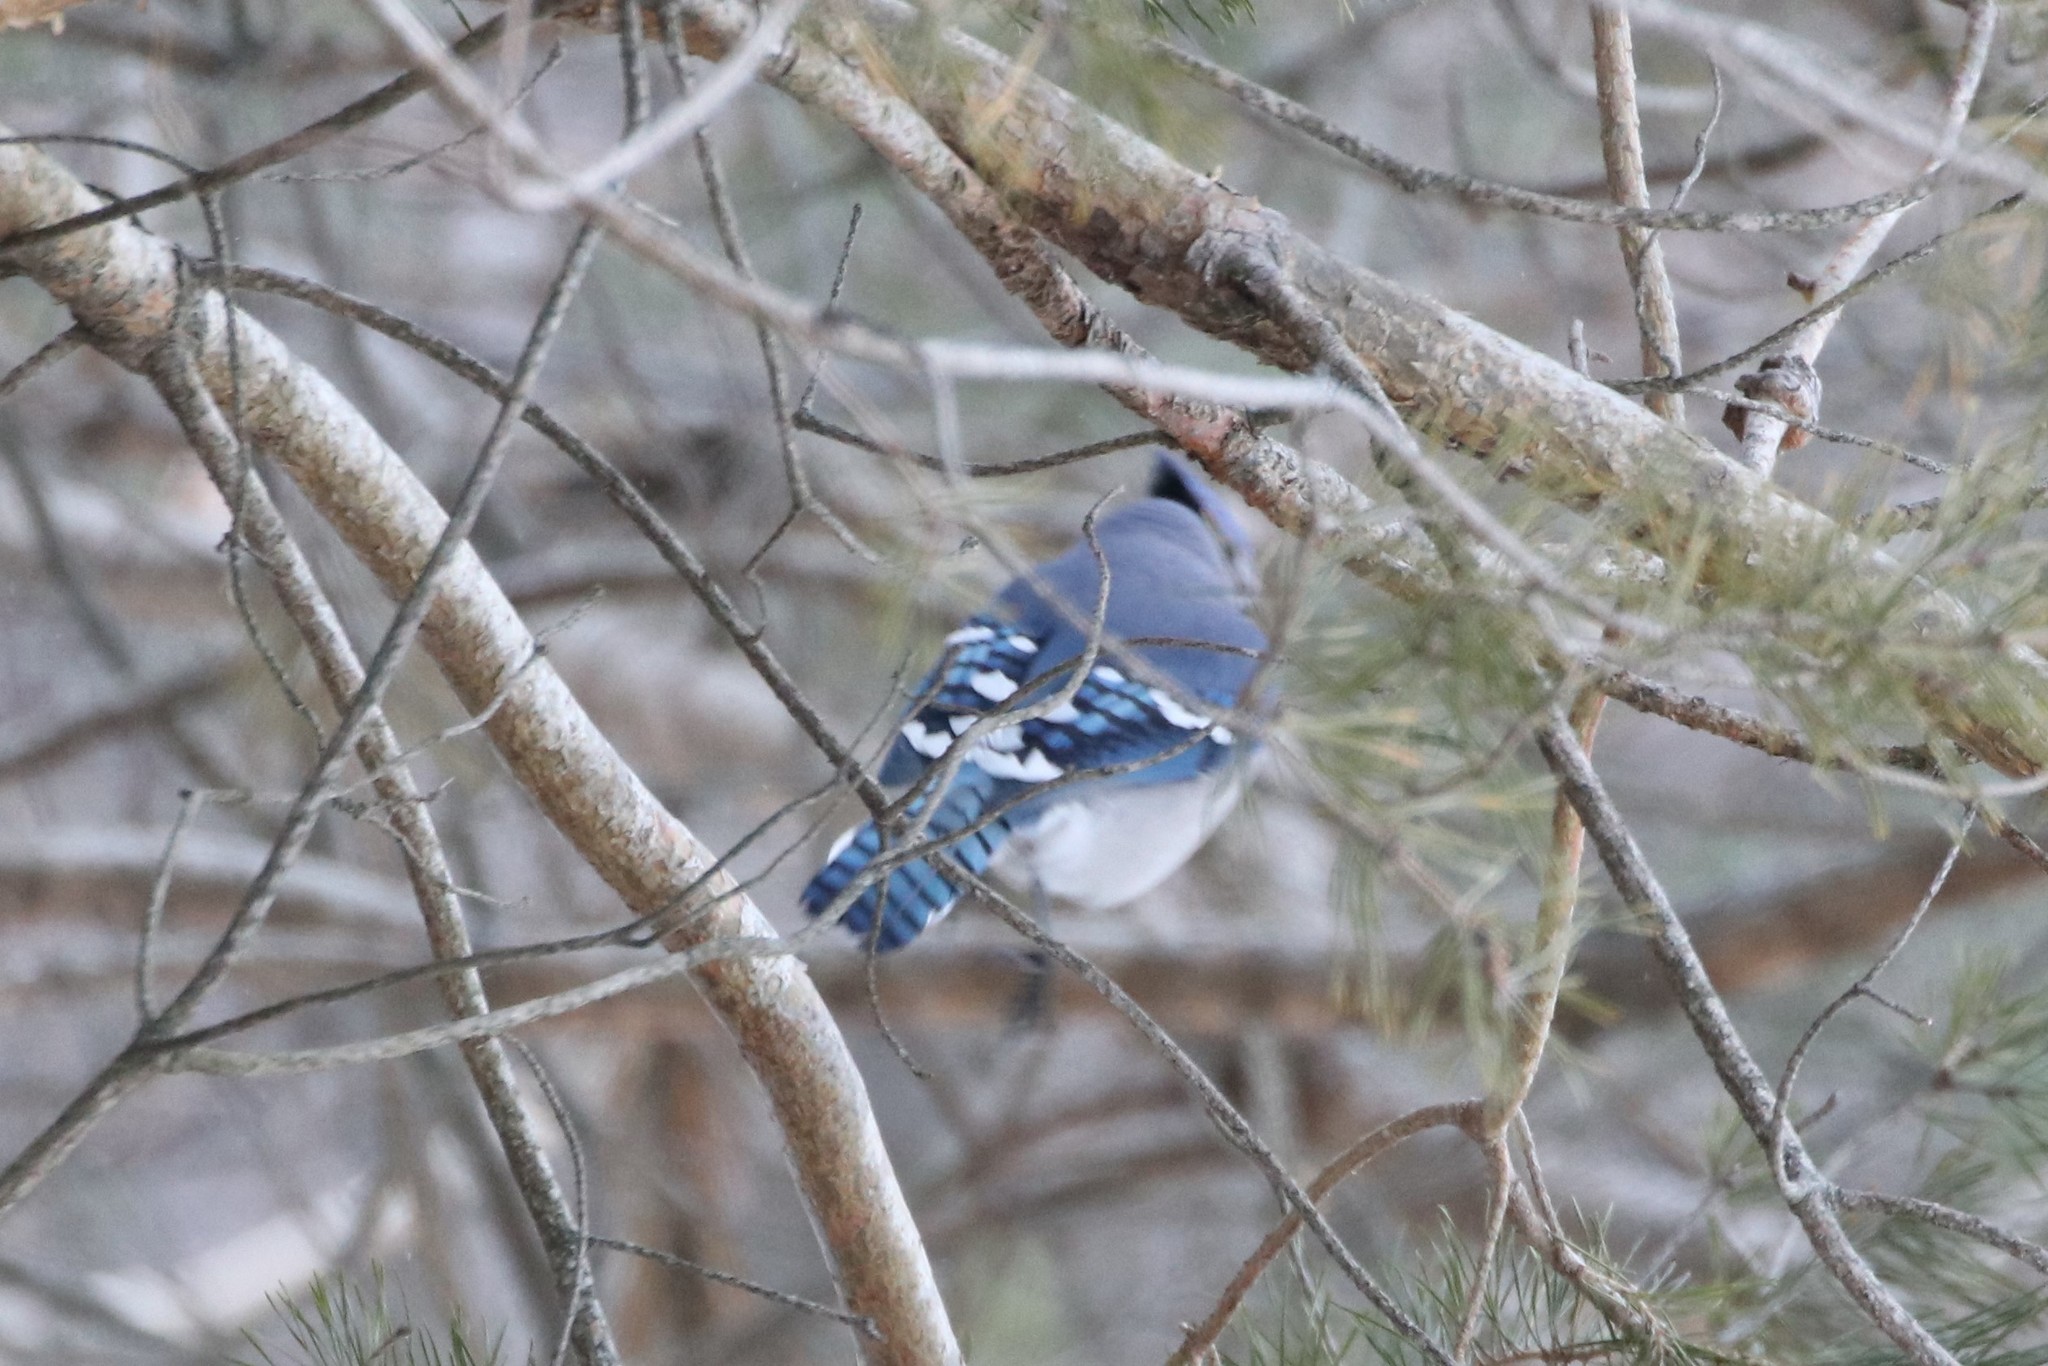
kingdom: Animalia
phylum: Chordata
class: Aves
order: Passeriformes
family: Corvidae
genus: Cyanocitta
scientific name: Cyanocitta cristata
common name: Blue jay
